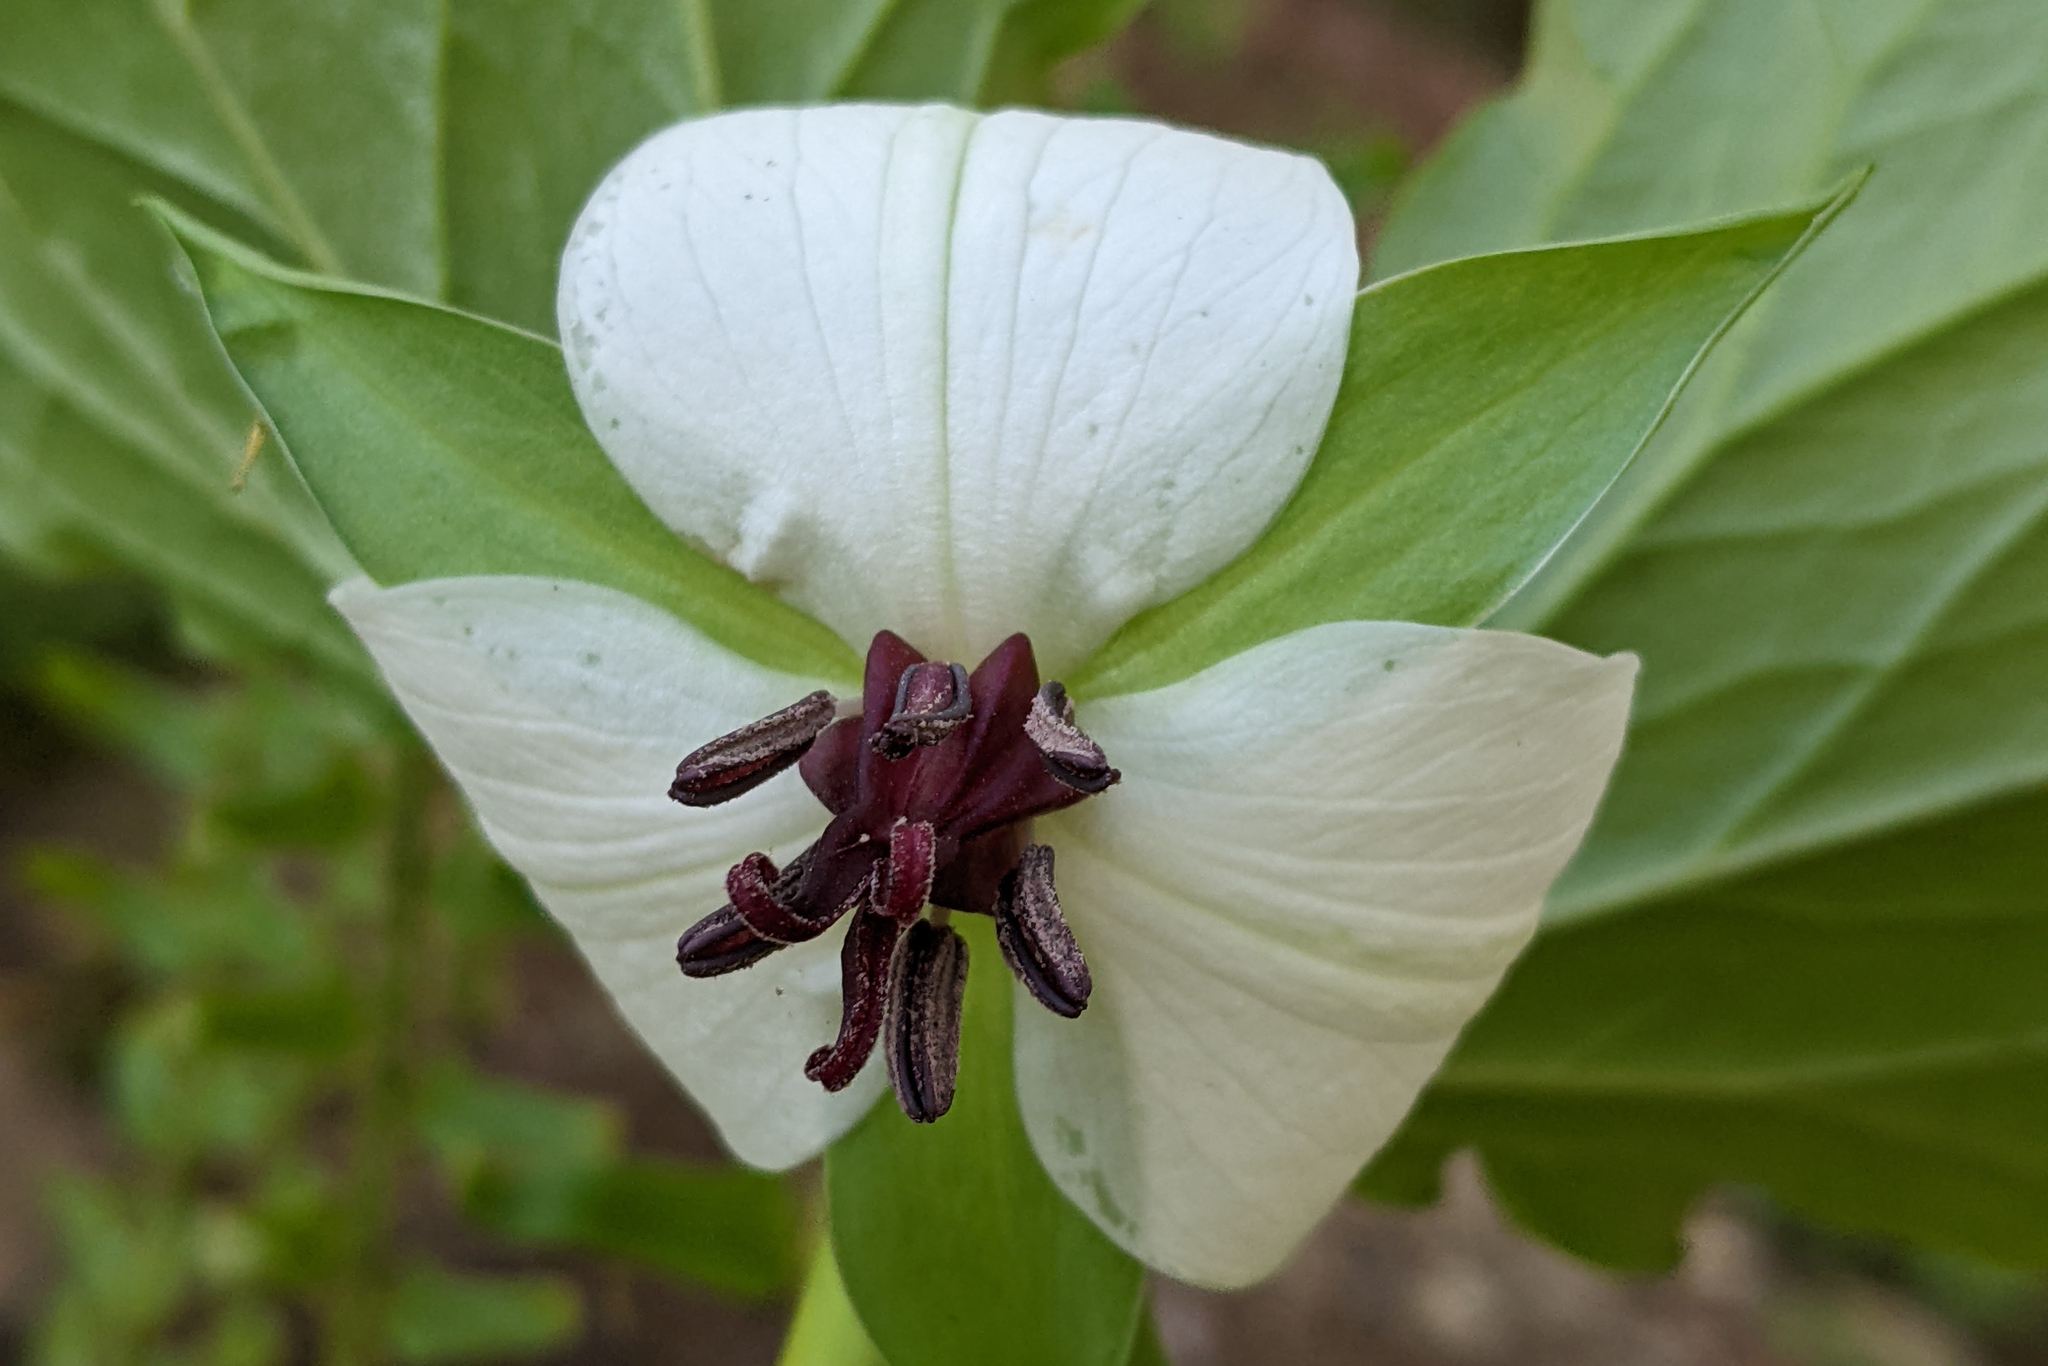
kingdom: Plantae
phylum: Tracheophyta
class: Liliopsida
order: Liliales
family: Melanthiaceae
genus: Trillium
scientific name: Trillium rugelii
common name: Ill-scented trillium
